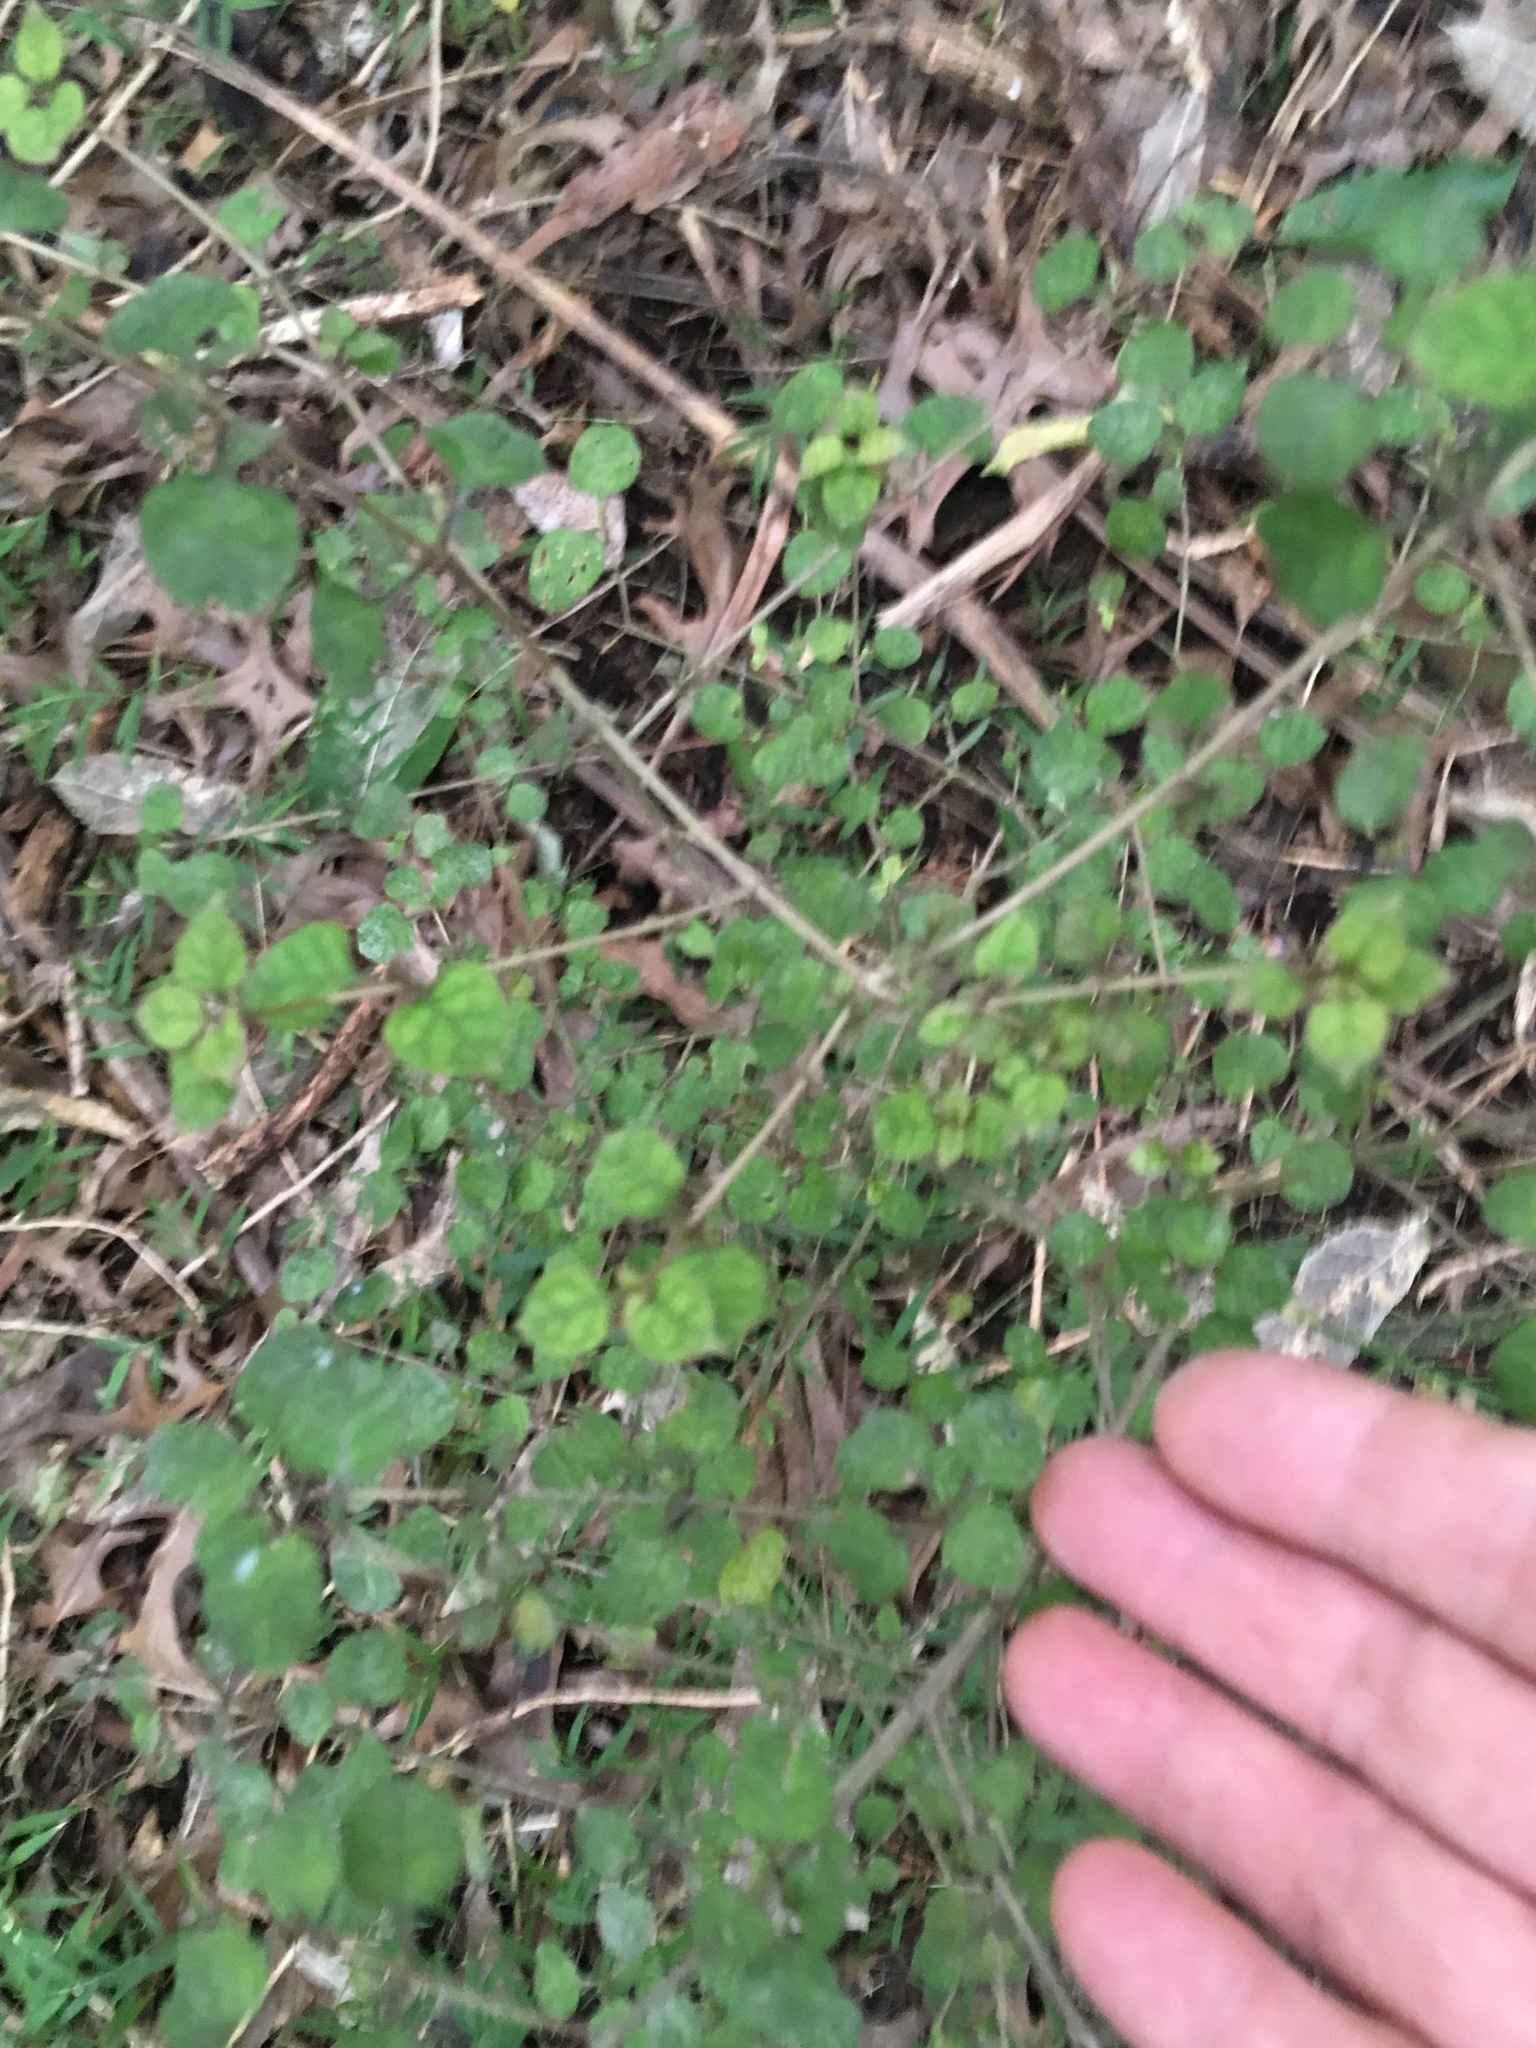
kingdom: Plantae
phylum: Tracheophyta
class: Magnoliopsida
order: Gentianales
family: Rubiaceae
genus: Coprosma
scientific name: Coprosma areolata
